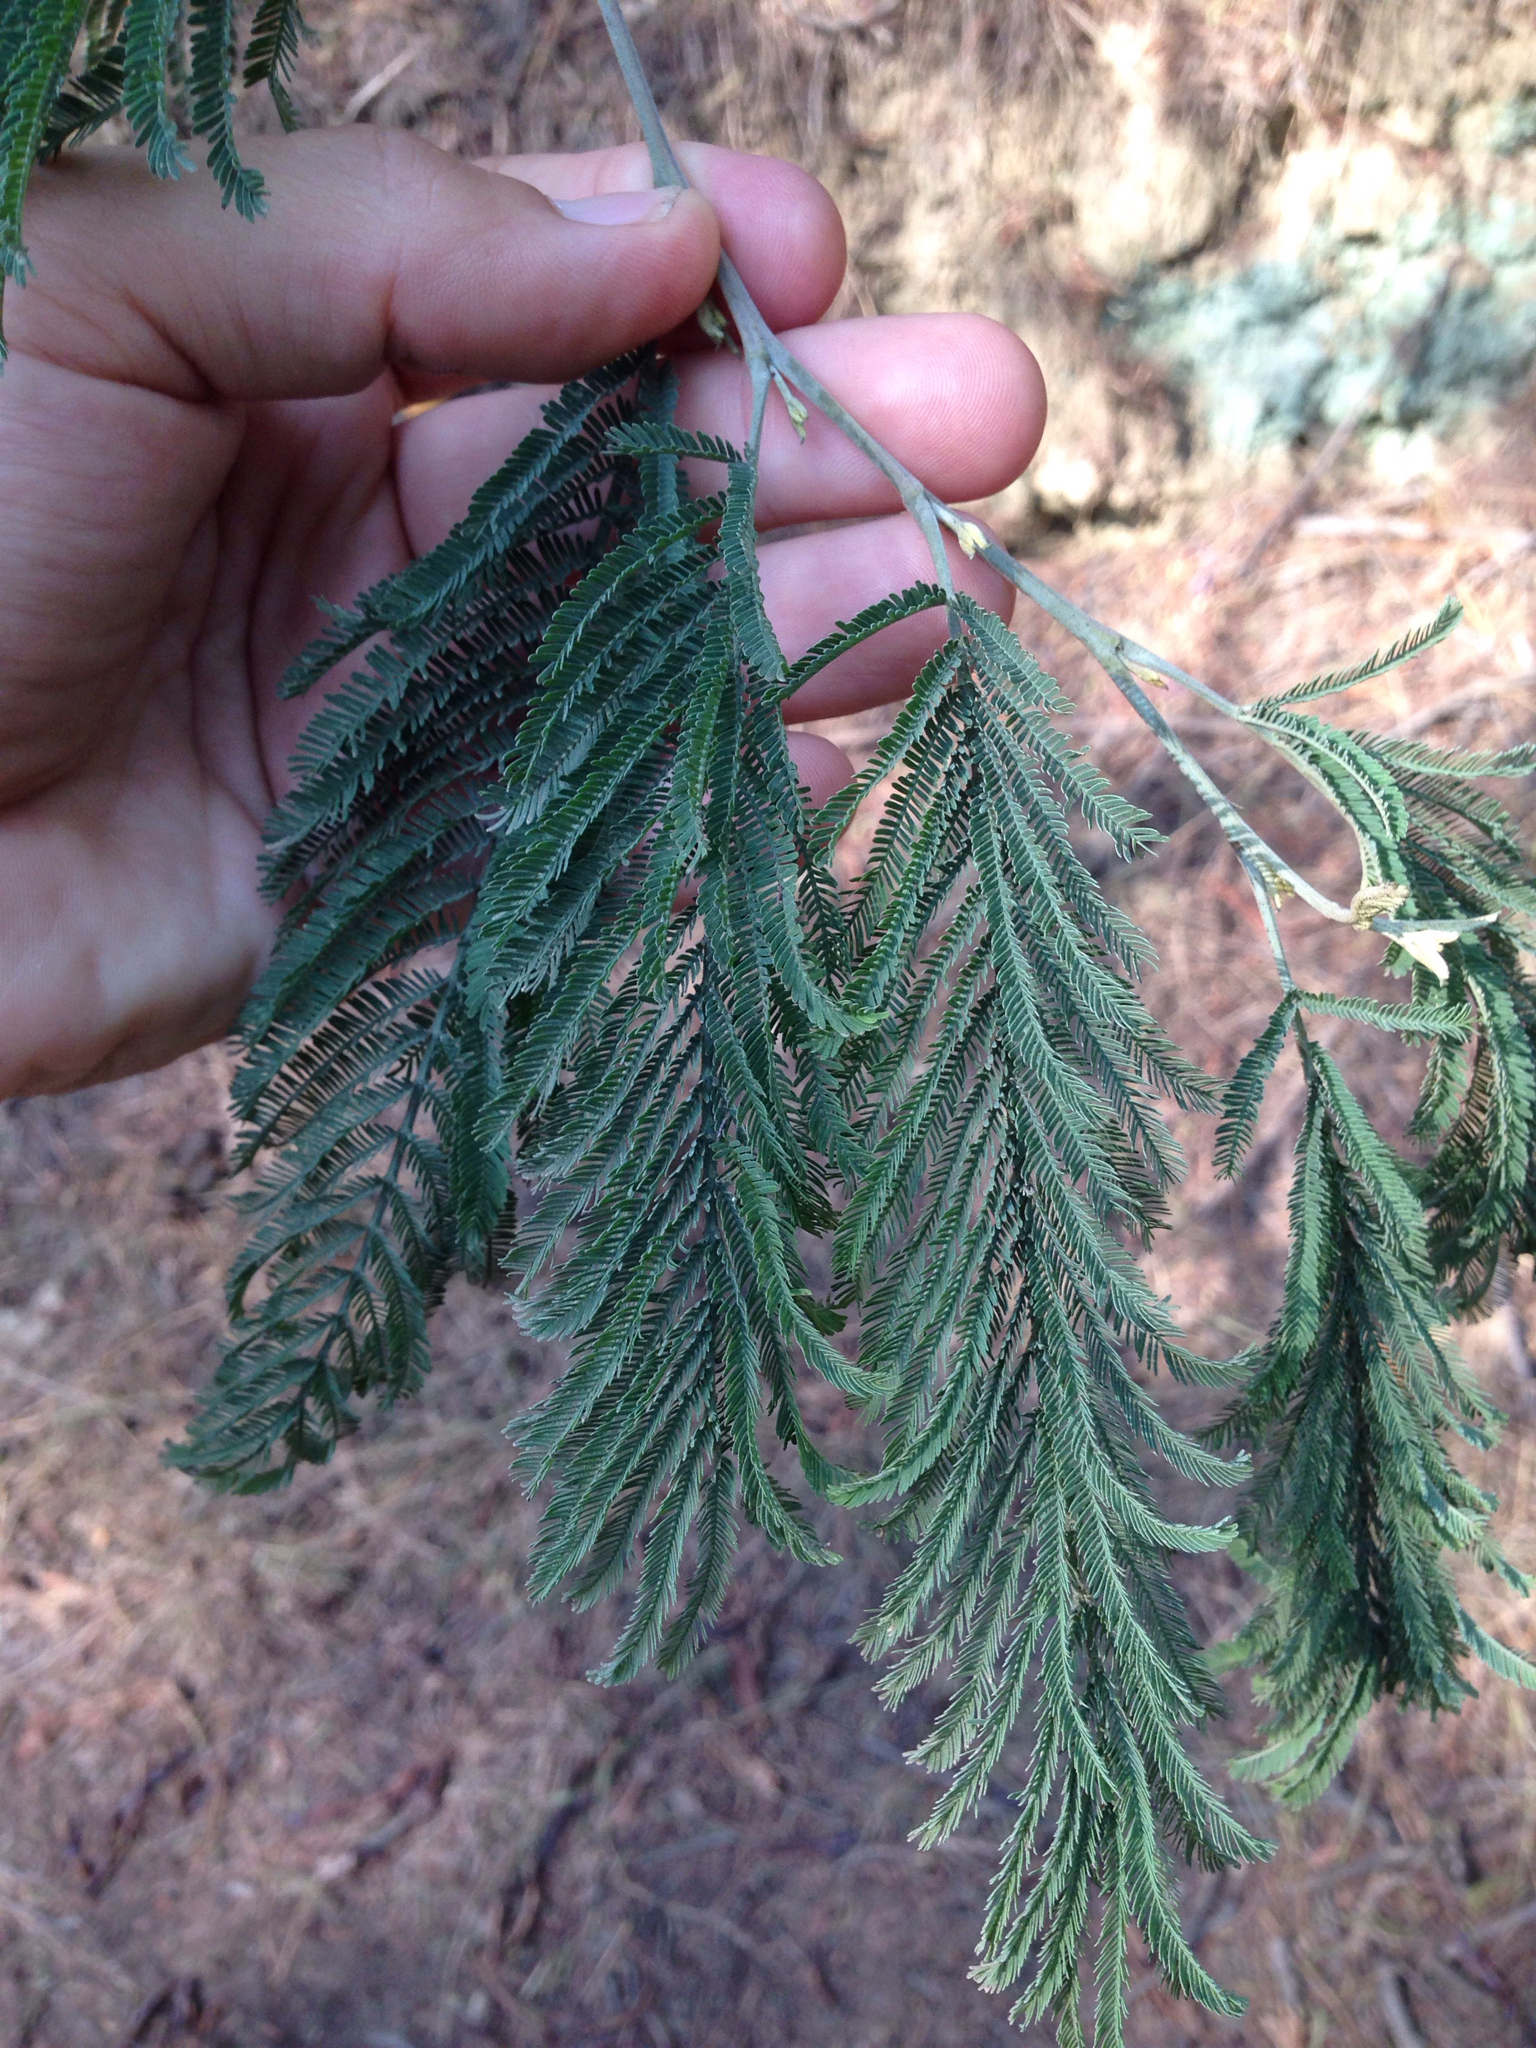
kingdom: Plantae
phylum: Tracheophyta
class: Magnoliopsida
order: Fabales
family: Fabaceae
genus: Acacia
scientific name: Acacia dealbata
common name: Silver wattle
